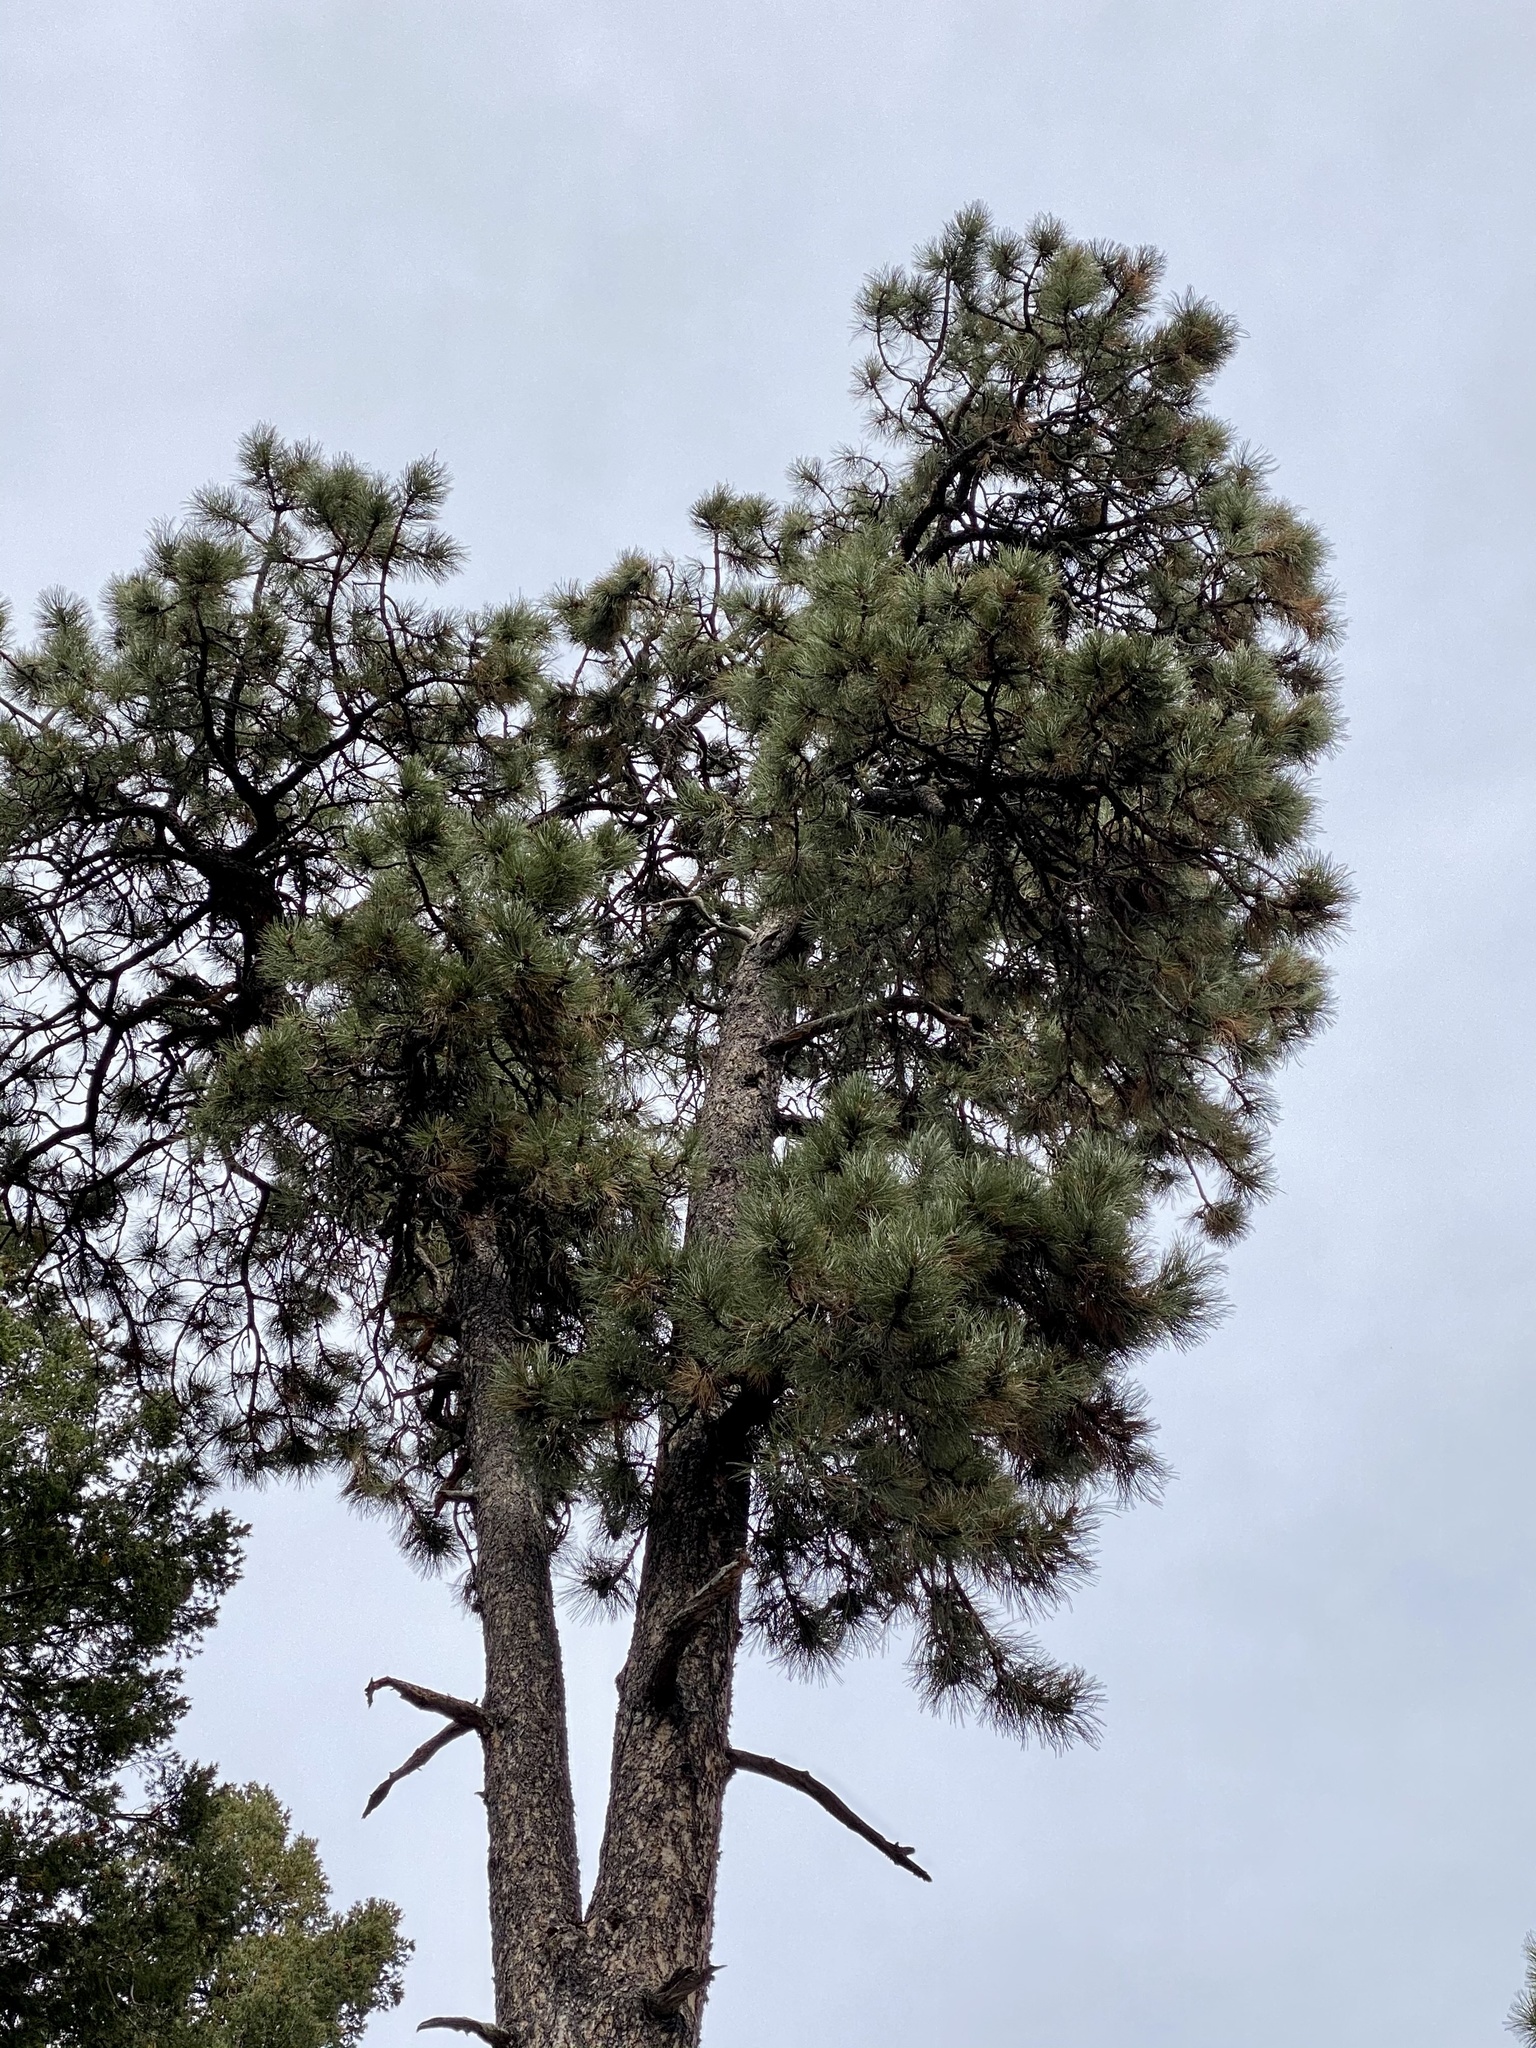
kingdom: Plantae
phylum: Tracheophyta
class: Pinopsida
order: Pinales
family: Pinaceae
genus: Pinus
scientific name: Pinus ponderosa
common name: Western yellow-pine
